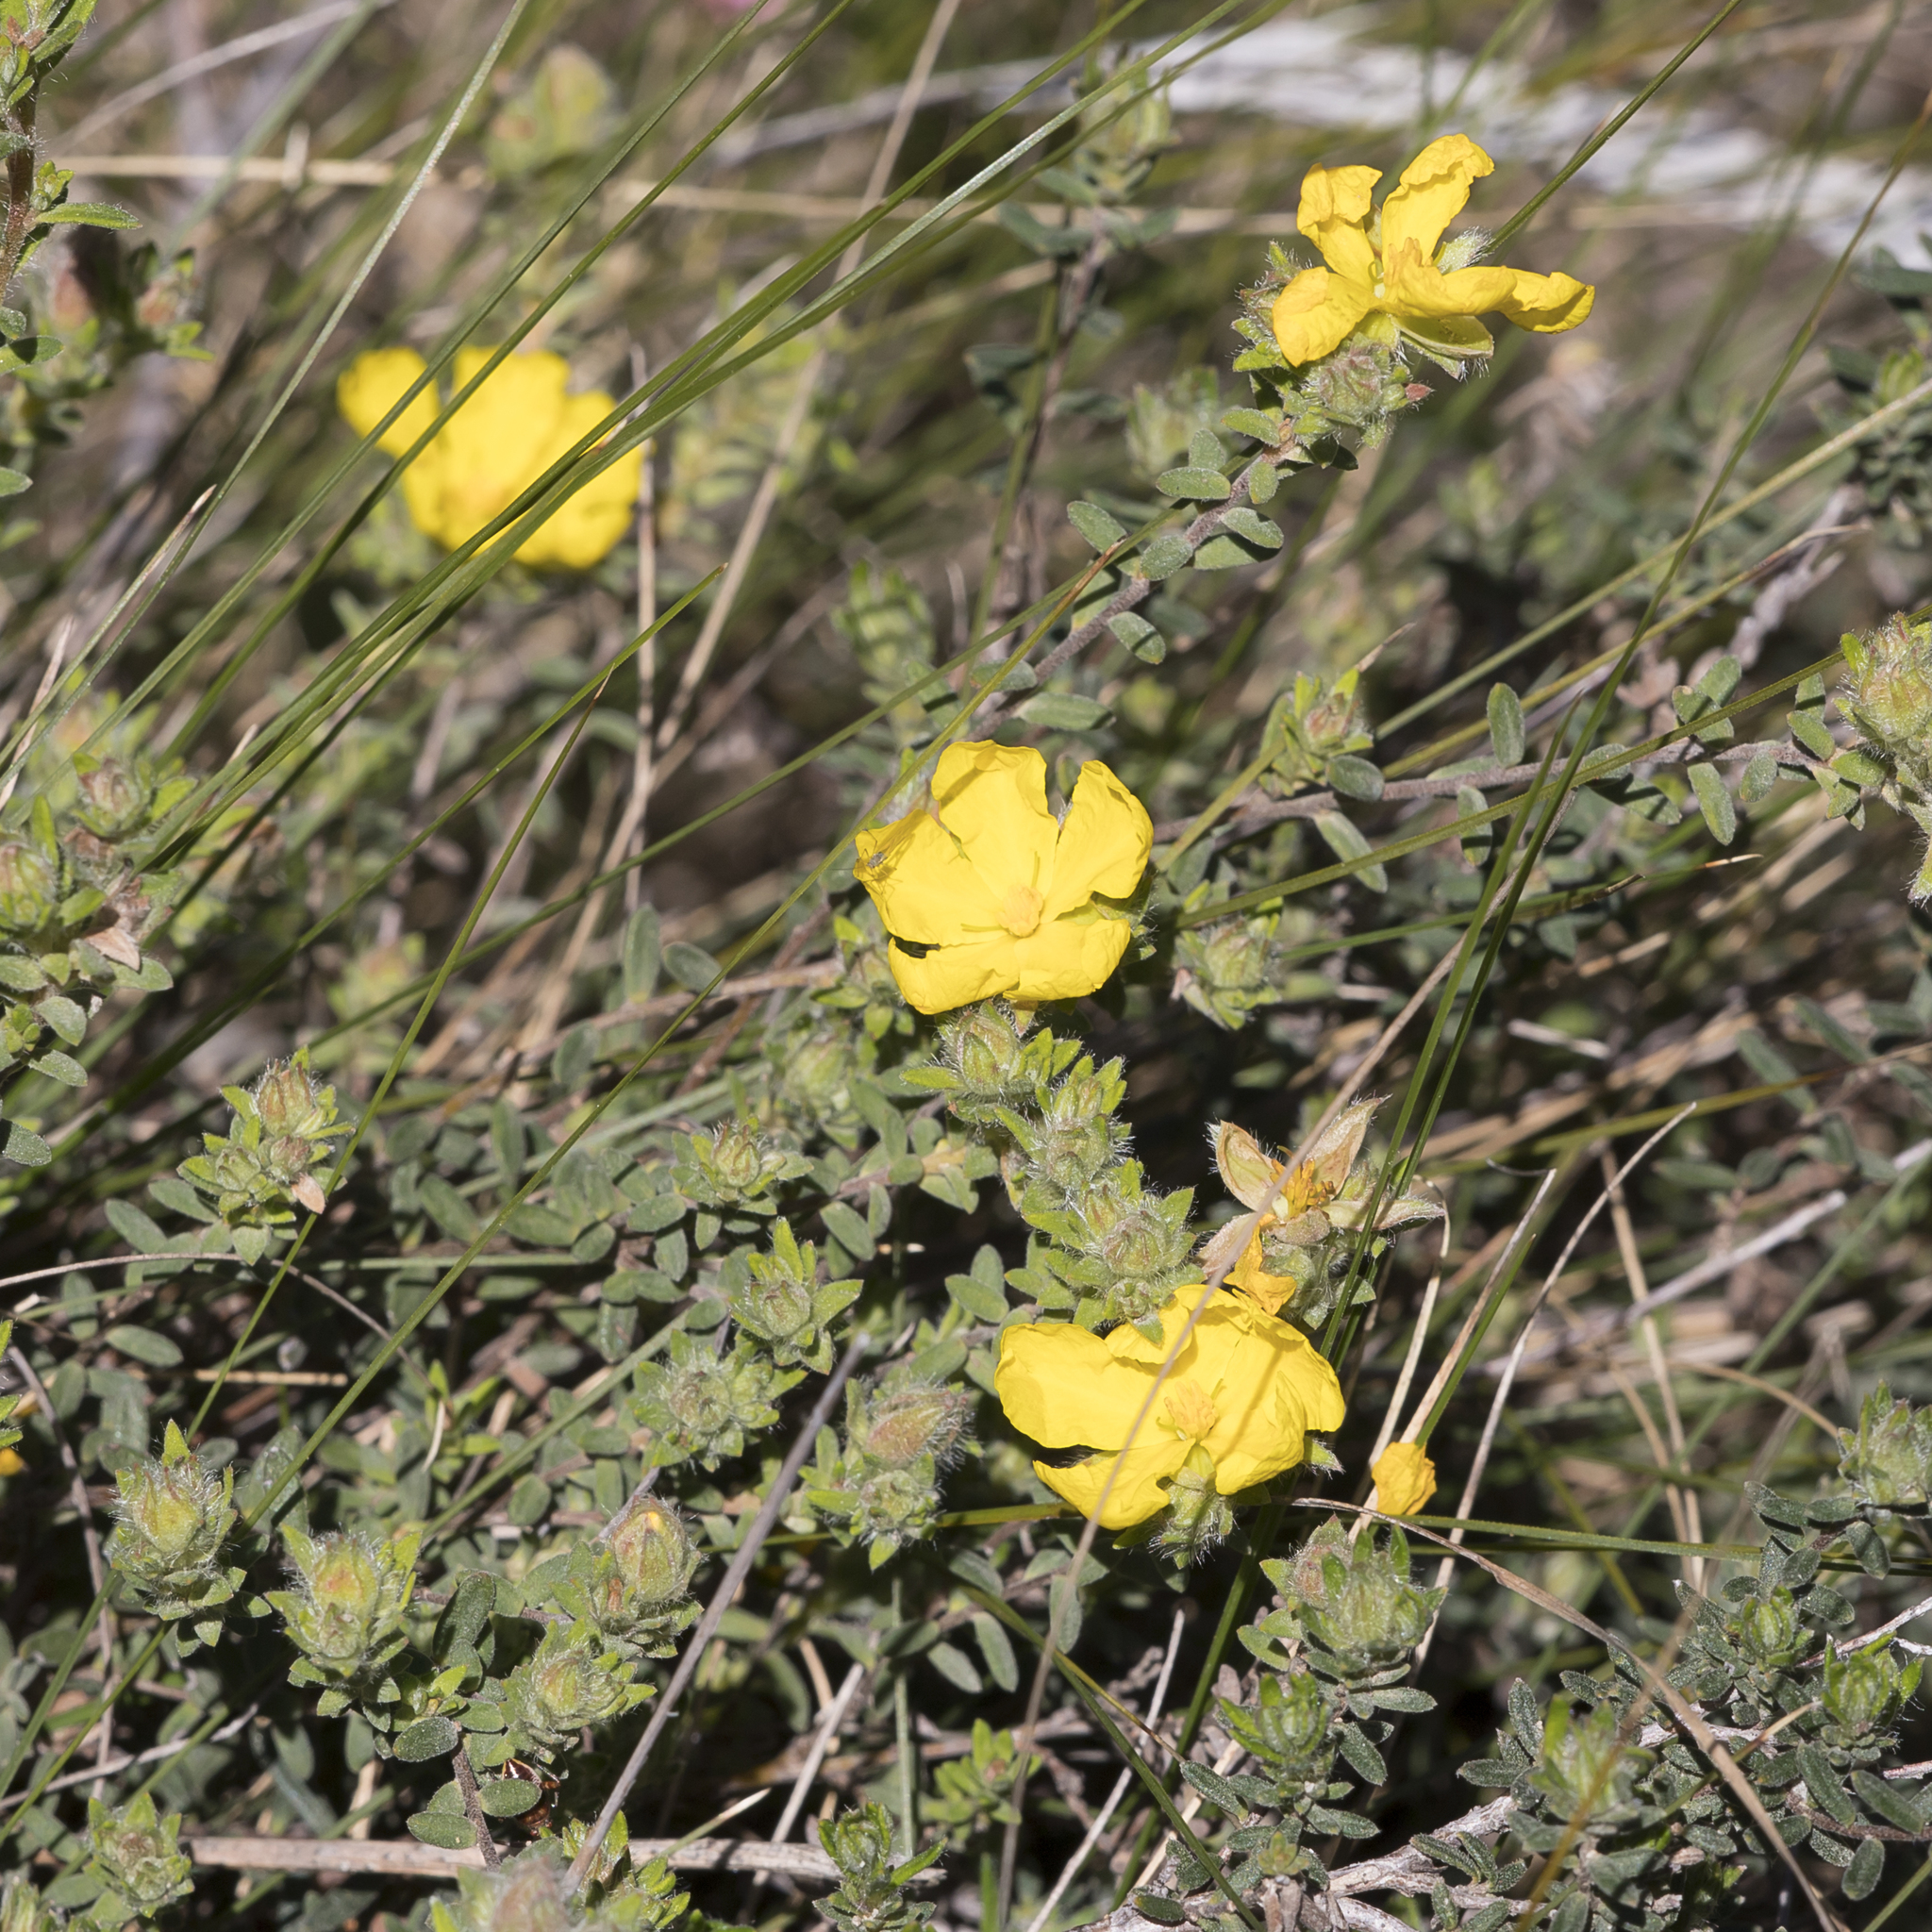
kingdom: Plantae
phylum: Tracheophyta
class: Magnoliopsida
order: Dilleniales
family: Dilleniaceae
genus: Hibbertia
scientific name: Hibbertia crinita
